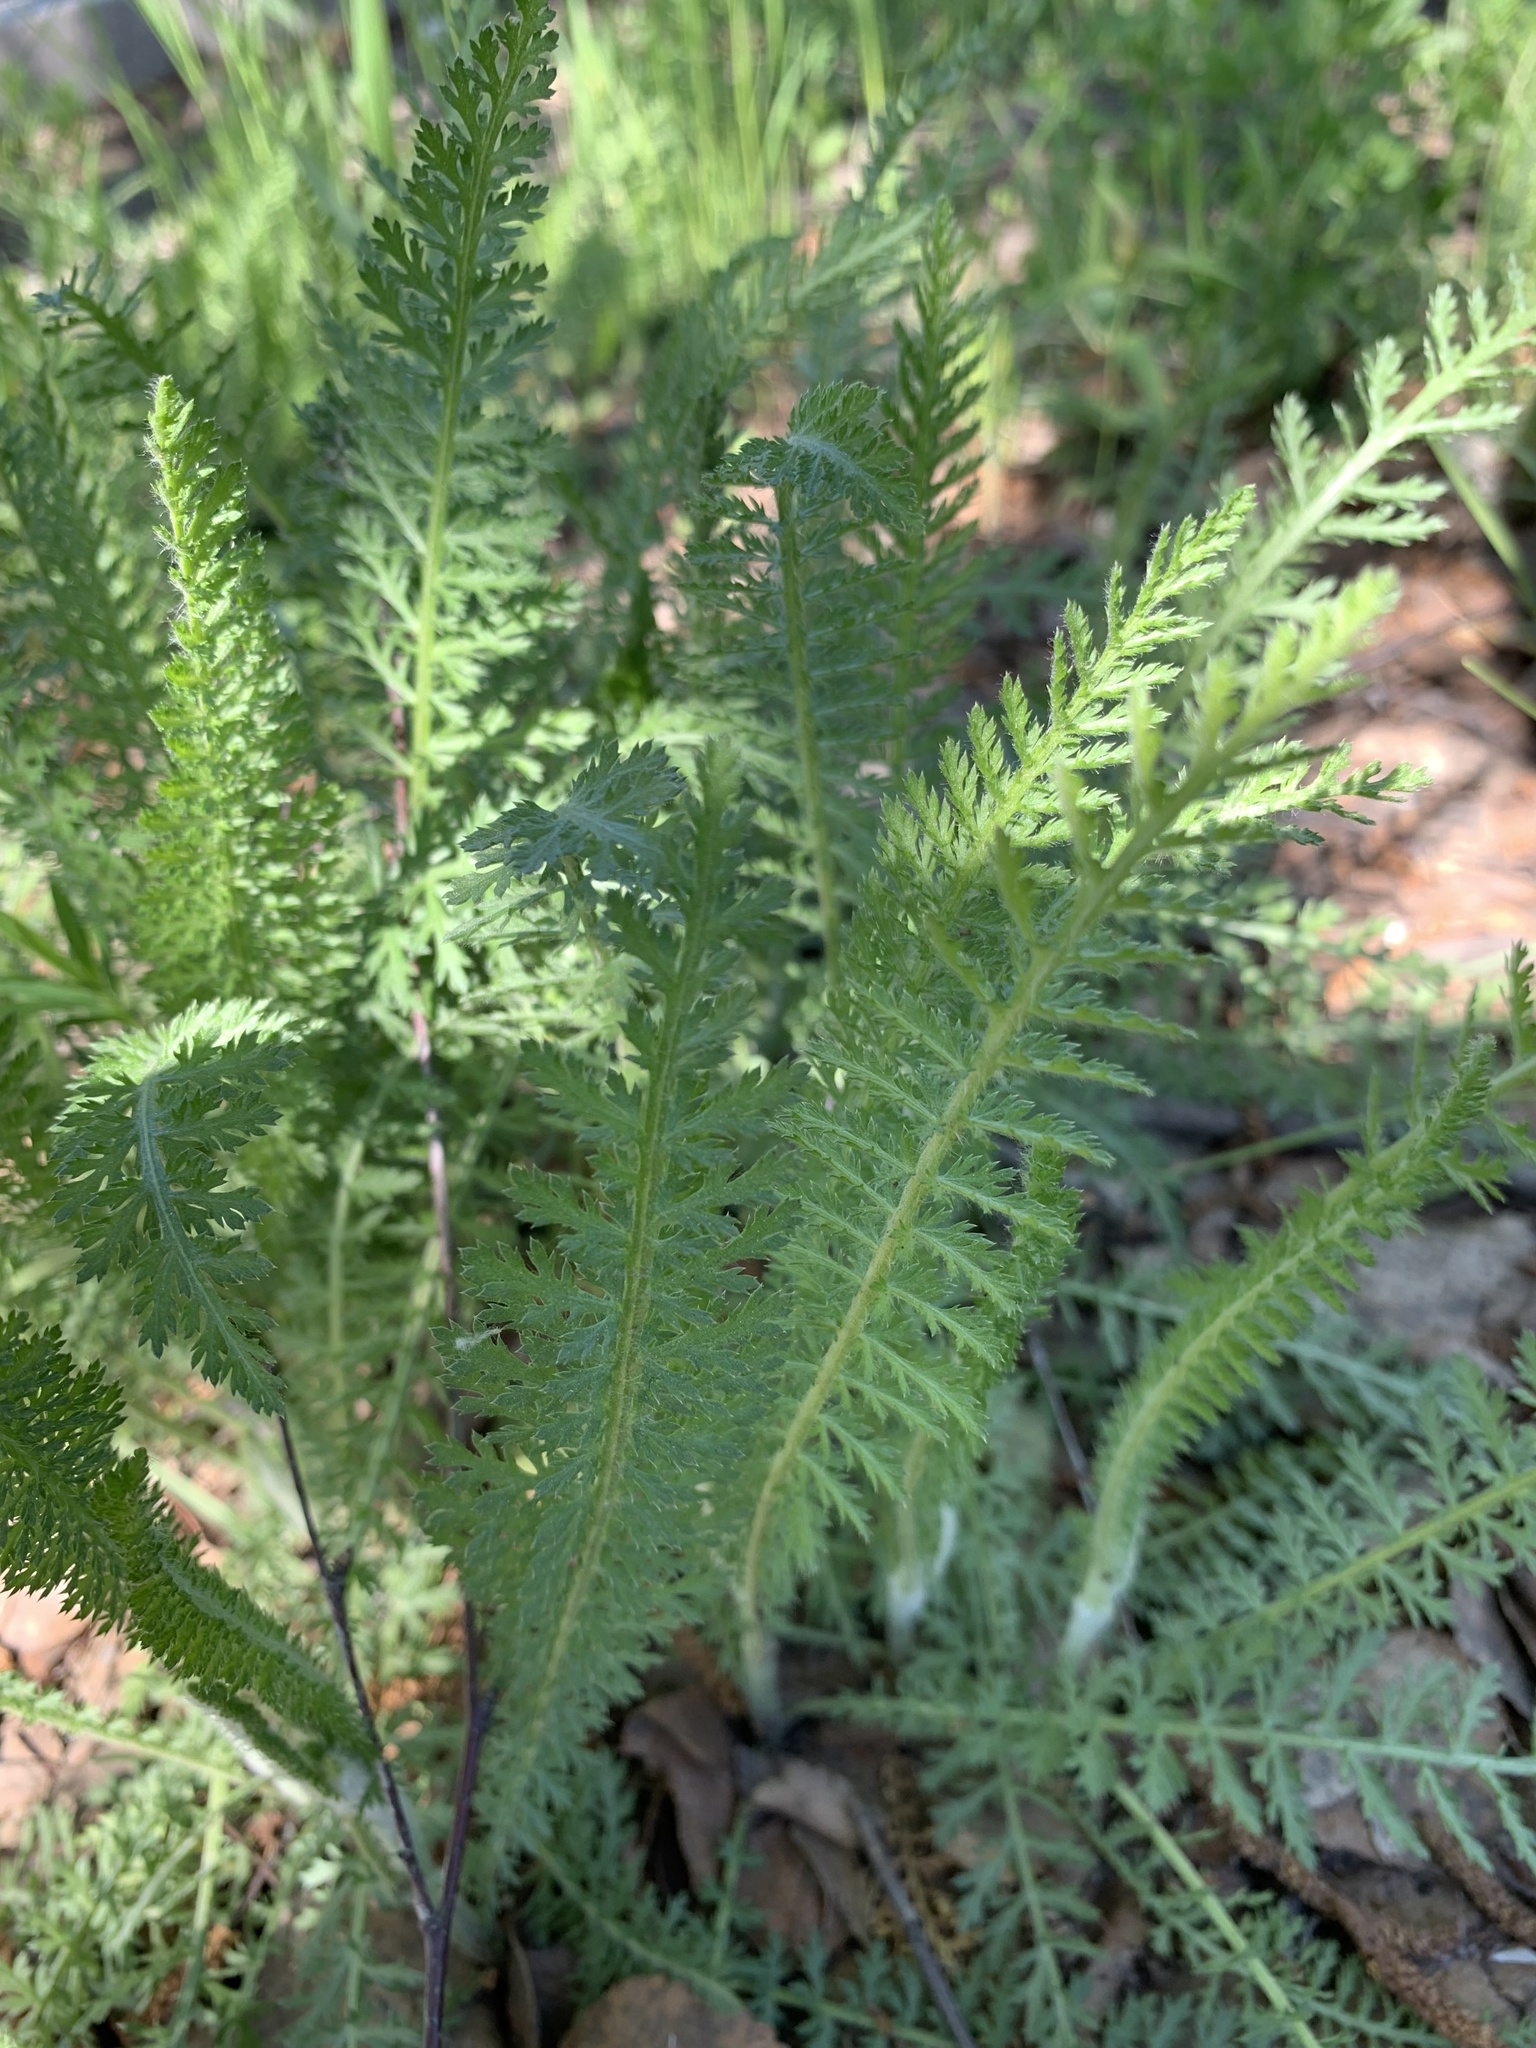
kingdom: Plantae
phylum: Tracheophyta
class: Magnoliopsida
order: Asterales
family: Asteraceae
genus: Achillea
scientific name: Achillea millefolium
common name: Yarrow
